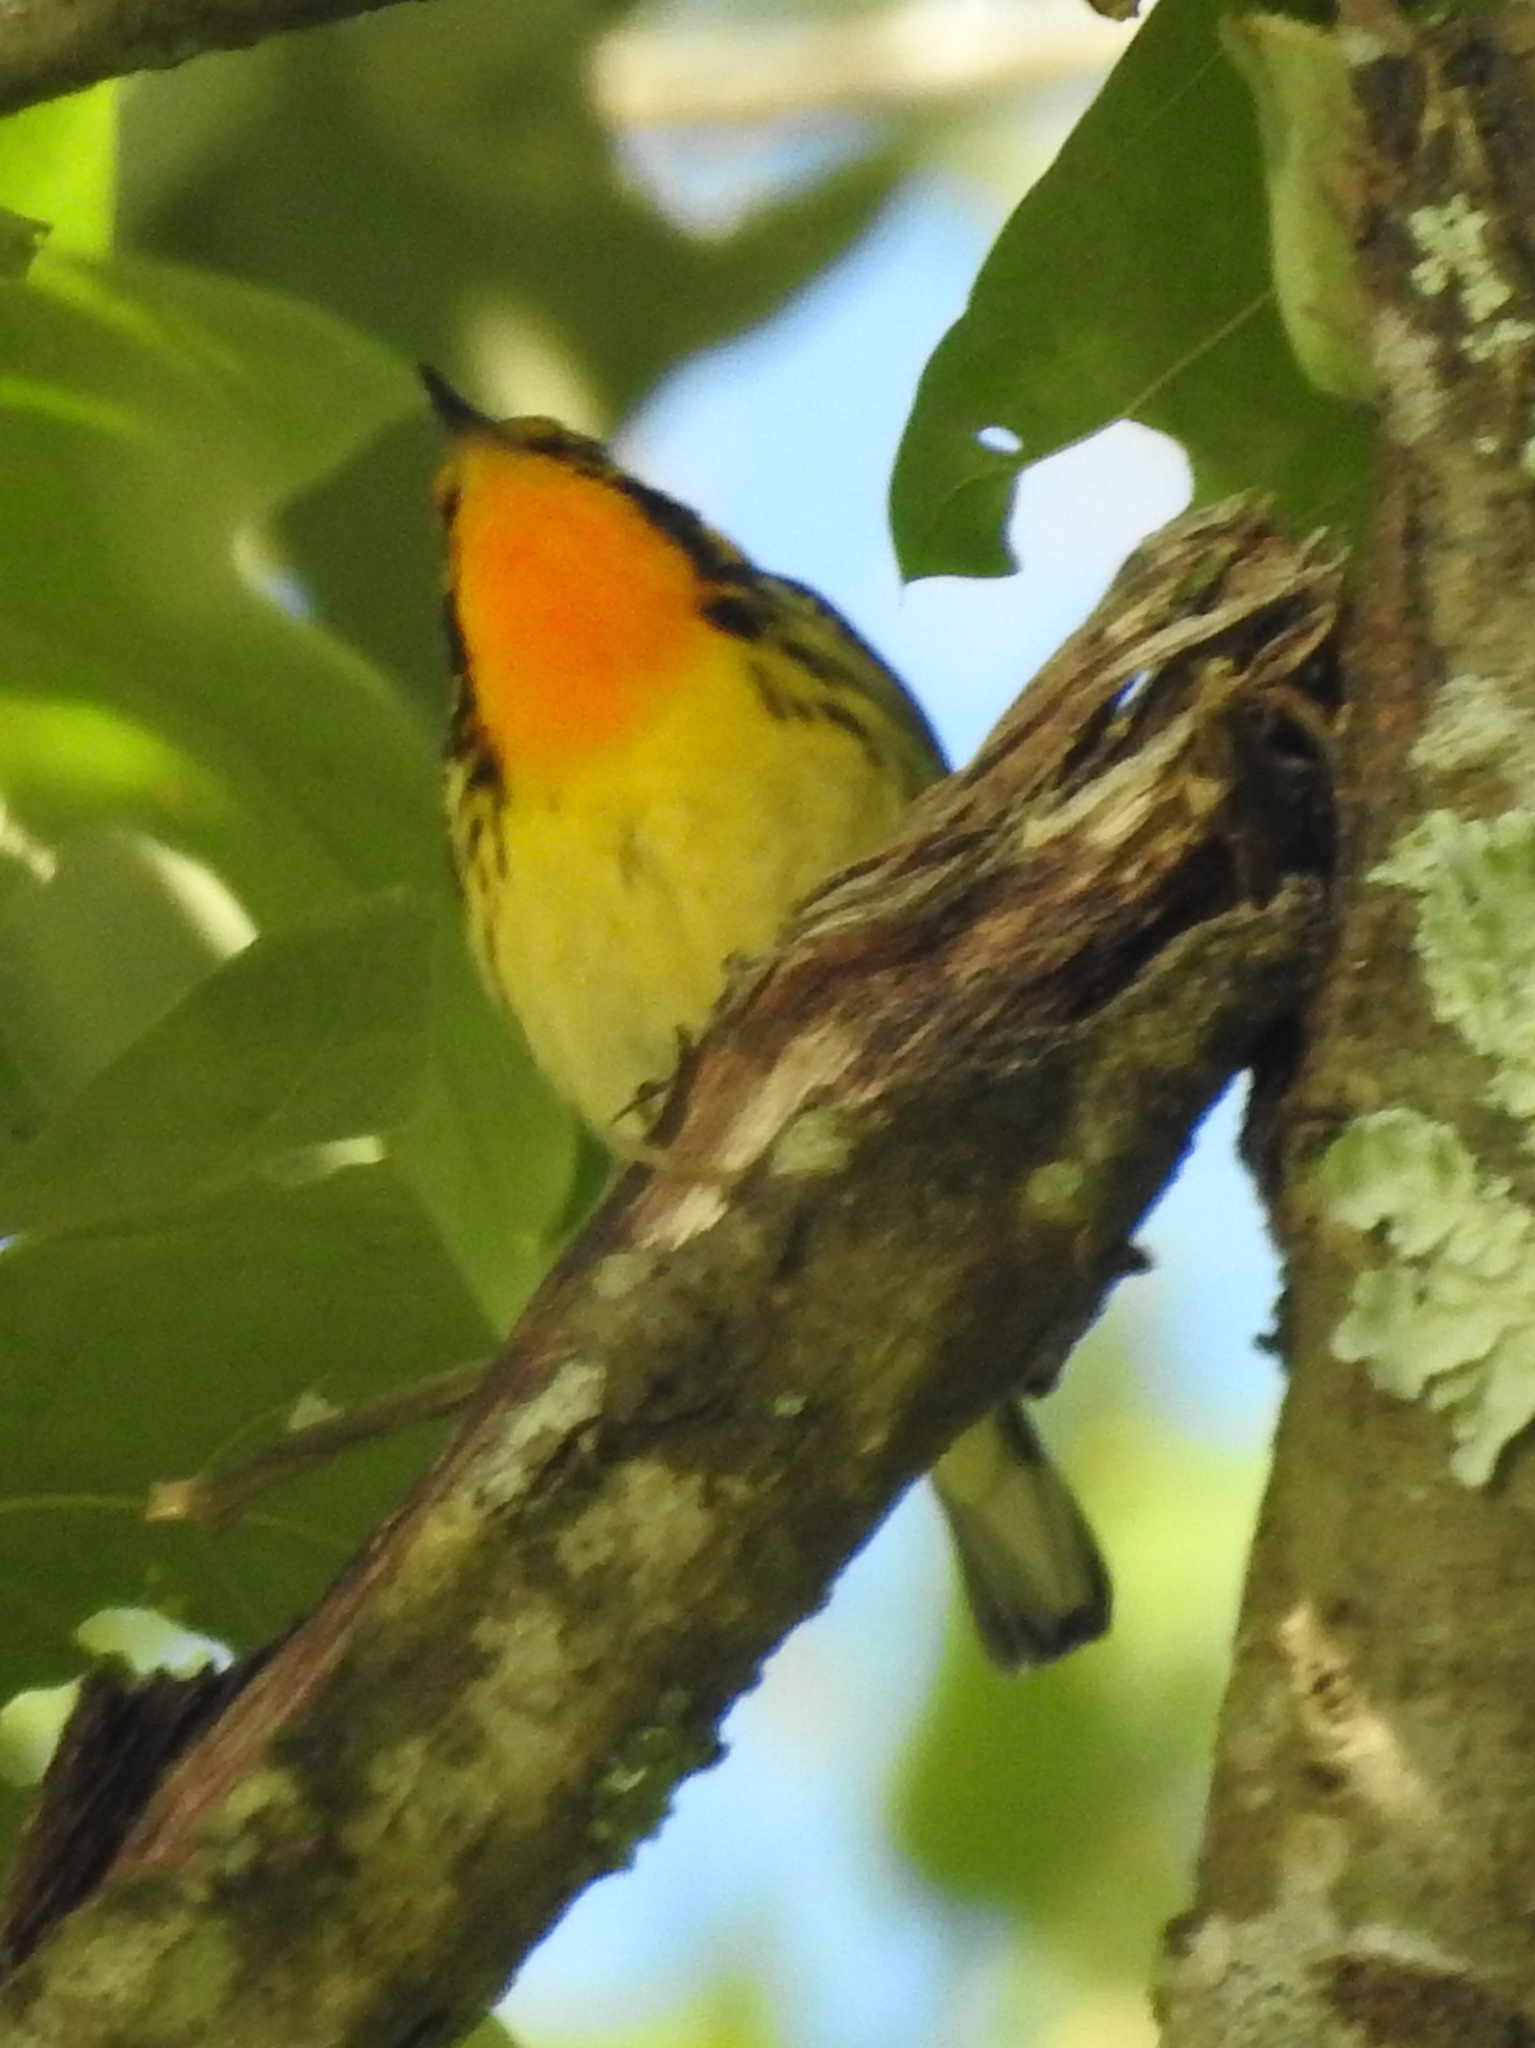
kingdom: Animalia
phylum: Chordata
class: Aves
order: Passeriformes
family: Parulidae
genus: Setophaga
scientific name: Setophaga fusca
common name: Blackburnian warbler
